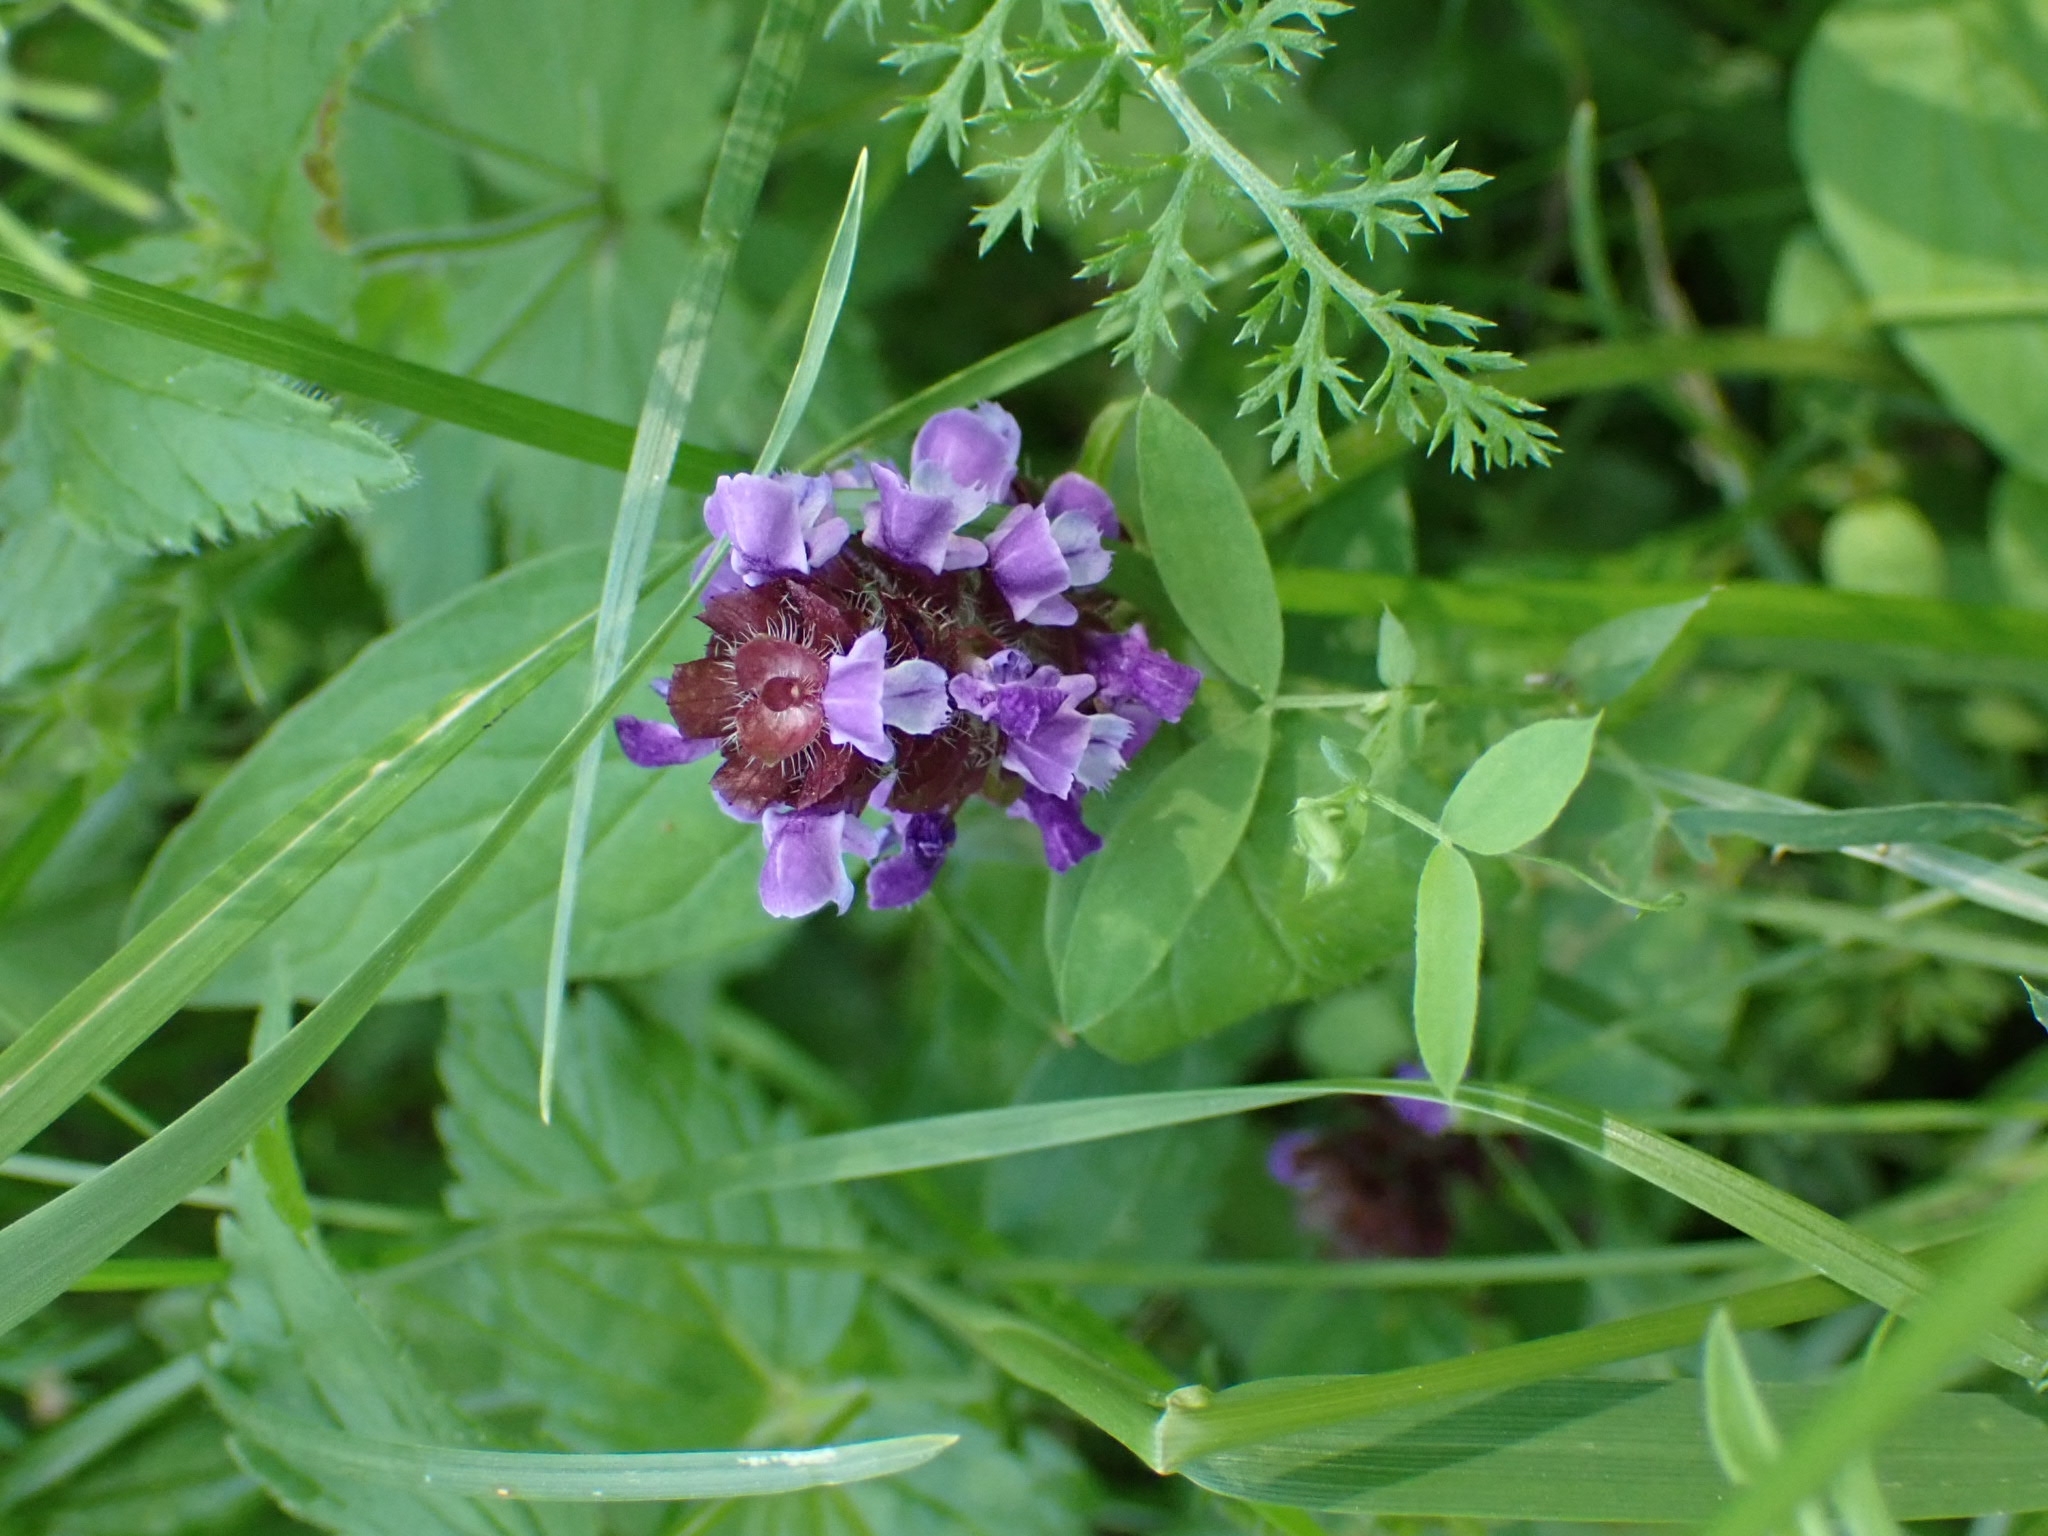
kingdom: Plantae
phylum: Tracheophyta
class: Magnoliopsida
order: Lamiales
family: Lamiaceae
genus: Prunella
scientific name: Prunella vulgaris
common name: Heal-all
